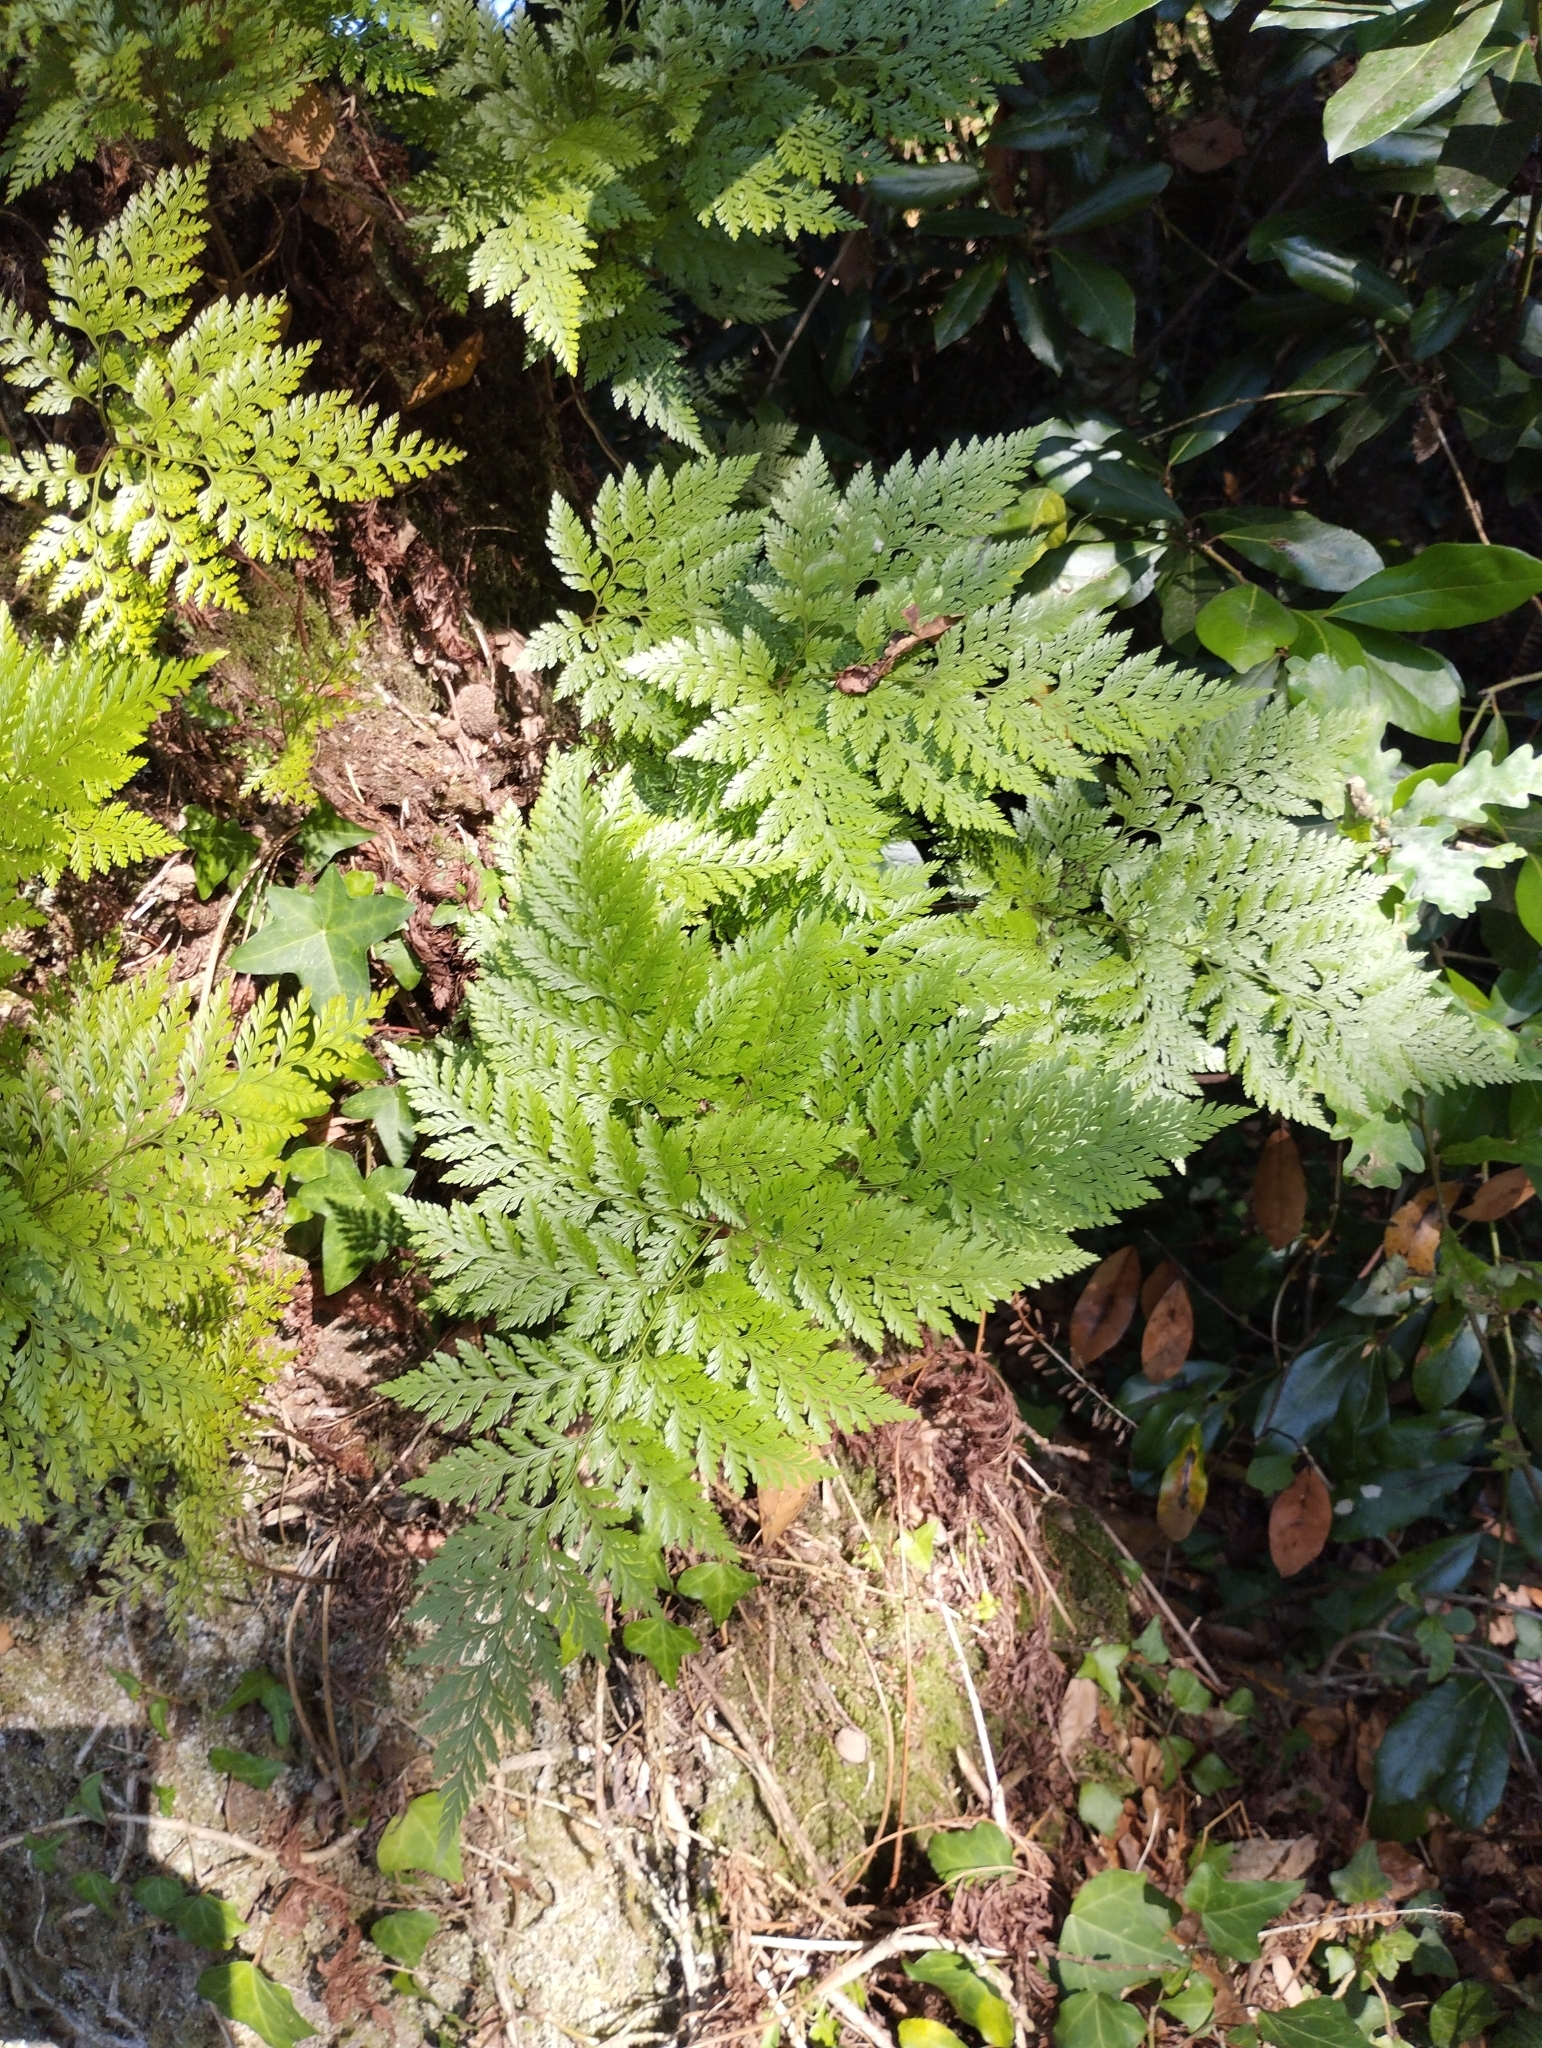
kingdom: Plantae
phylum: Tracheophyta
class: Polypodiopsida
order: Polypodiales
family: Davalliaceae
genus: Davallia
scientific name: Davallia canariensis
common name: Hare's-foot fern
